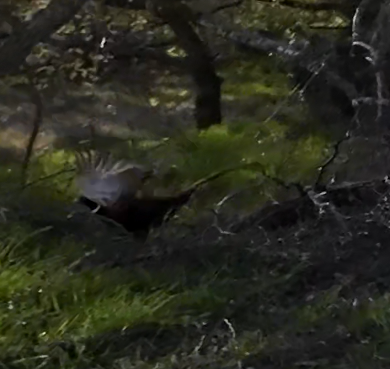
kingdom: Animalia
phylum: Chordata
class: Aves
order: Galliformes
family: Phasianidae
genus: Phasianus
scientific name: Phasianus colchicus
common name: Common pheasant
